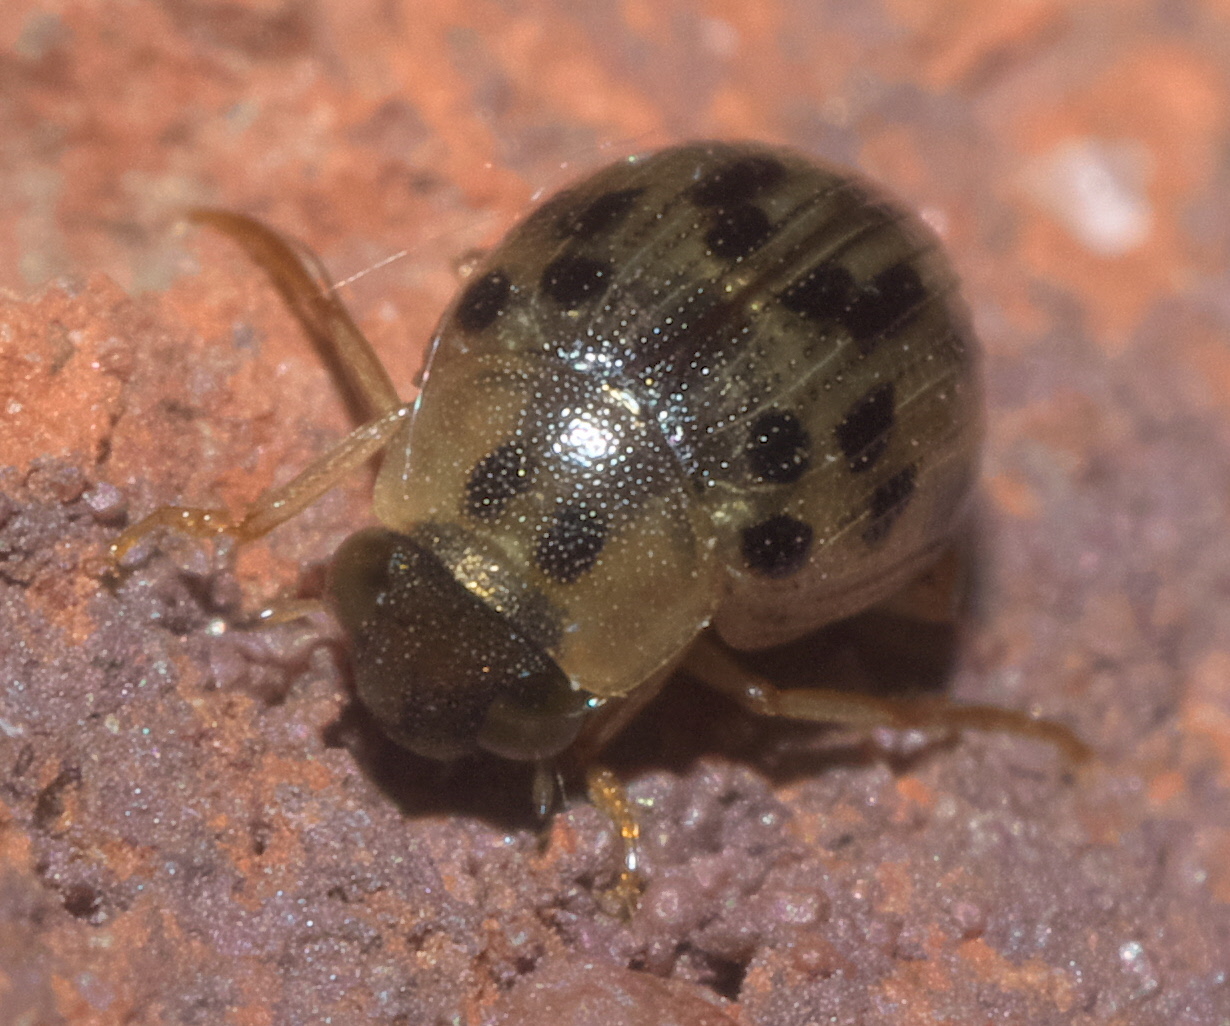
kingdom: Animalia
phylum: Arthropoda
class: Insecta
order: Coleoptera
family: Hydrophilidae
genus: Berosus
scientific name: Berosus pantherinus
